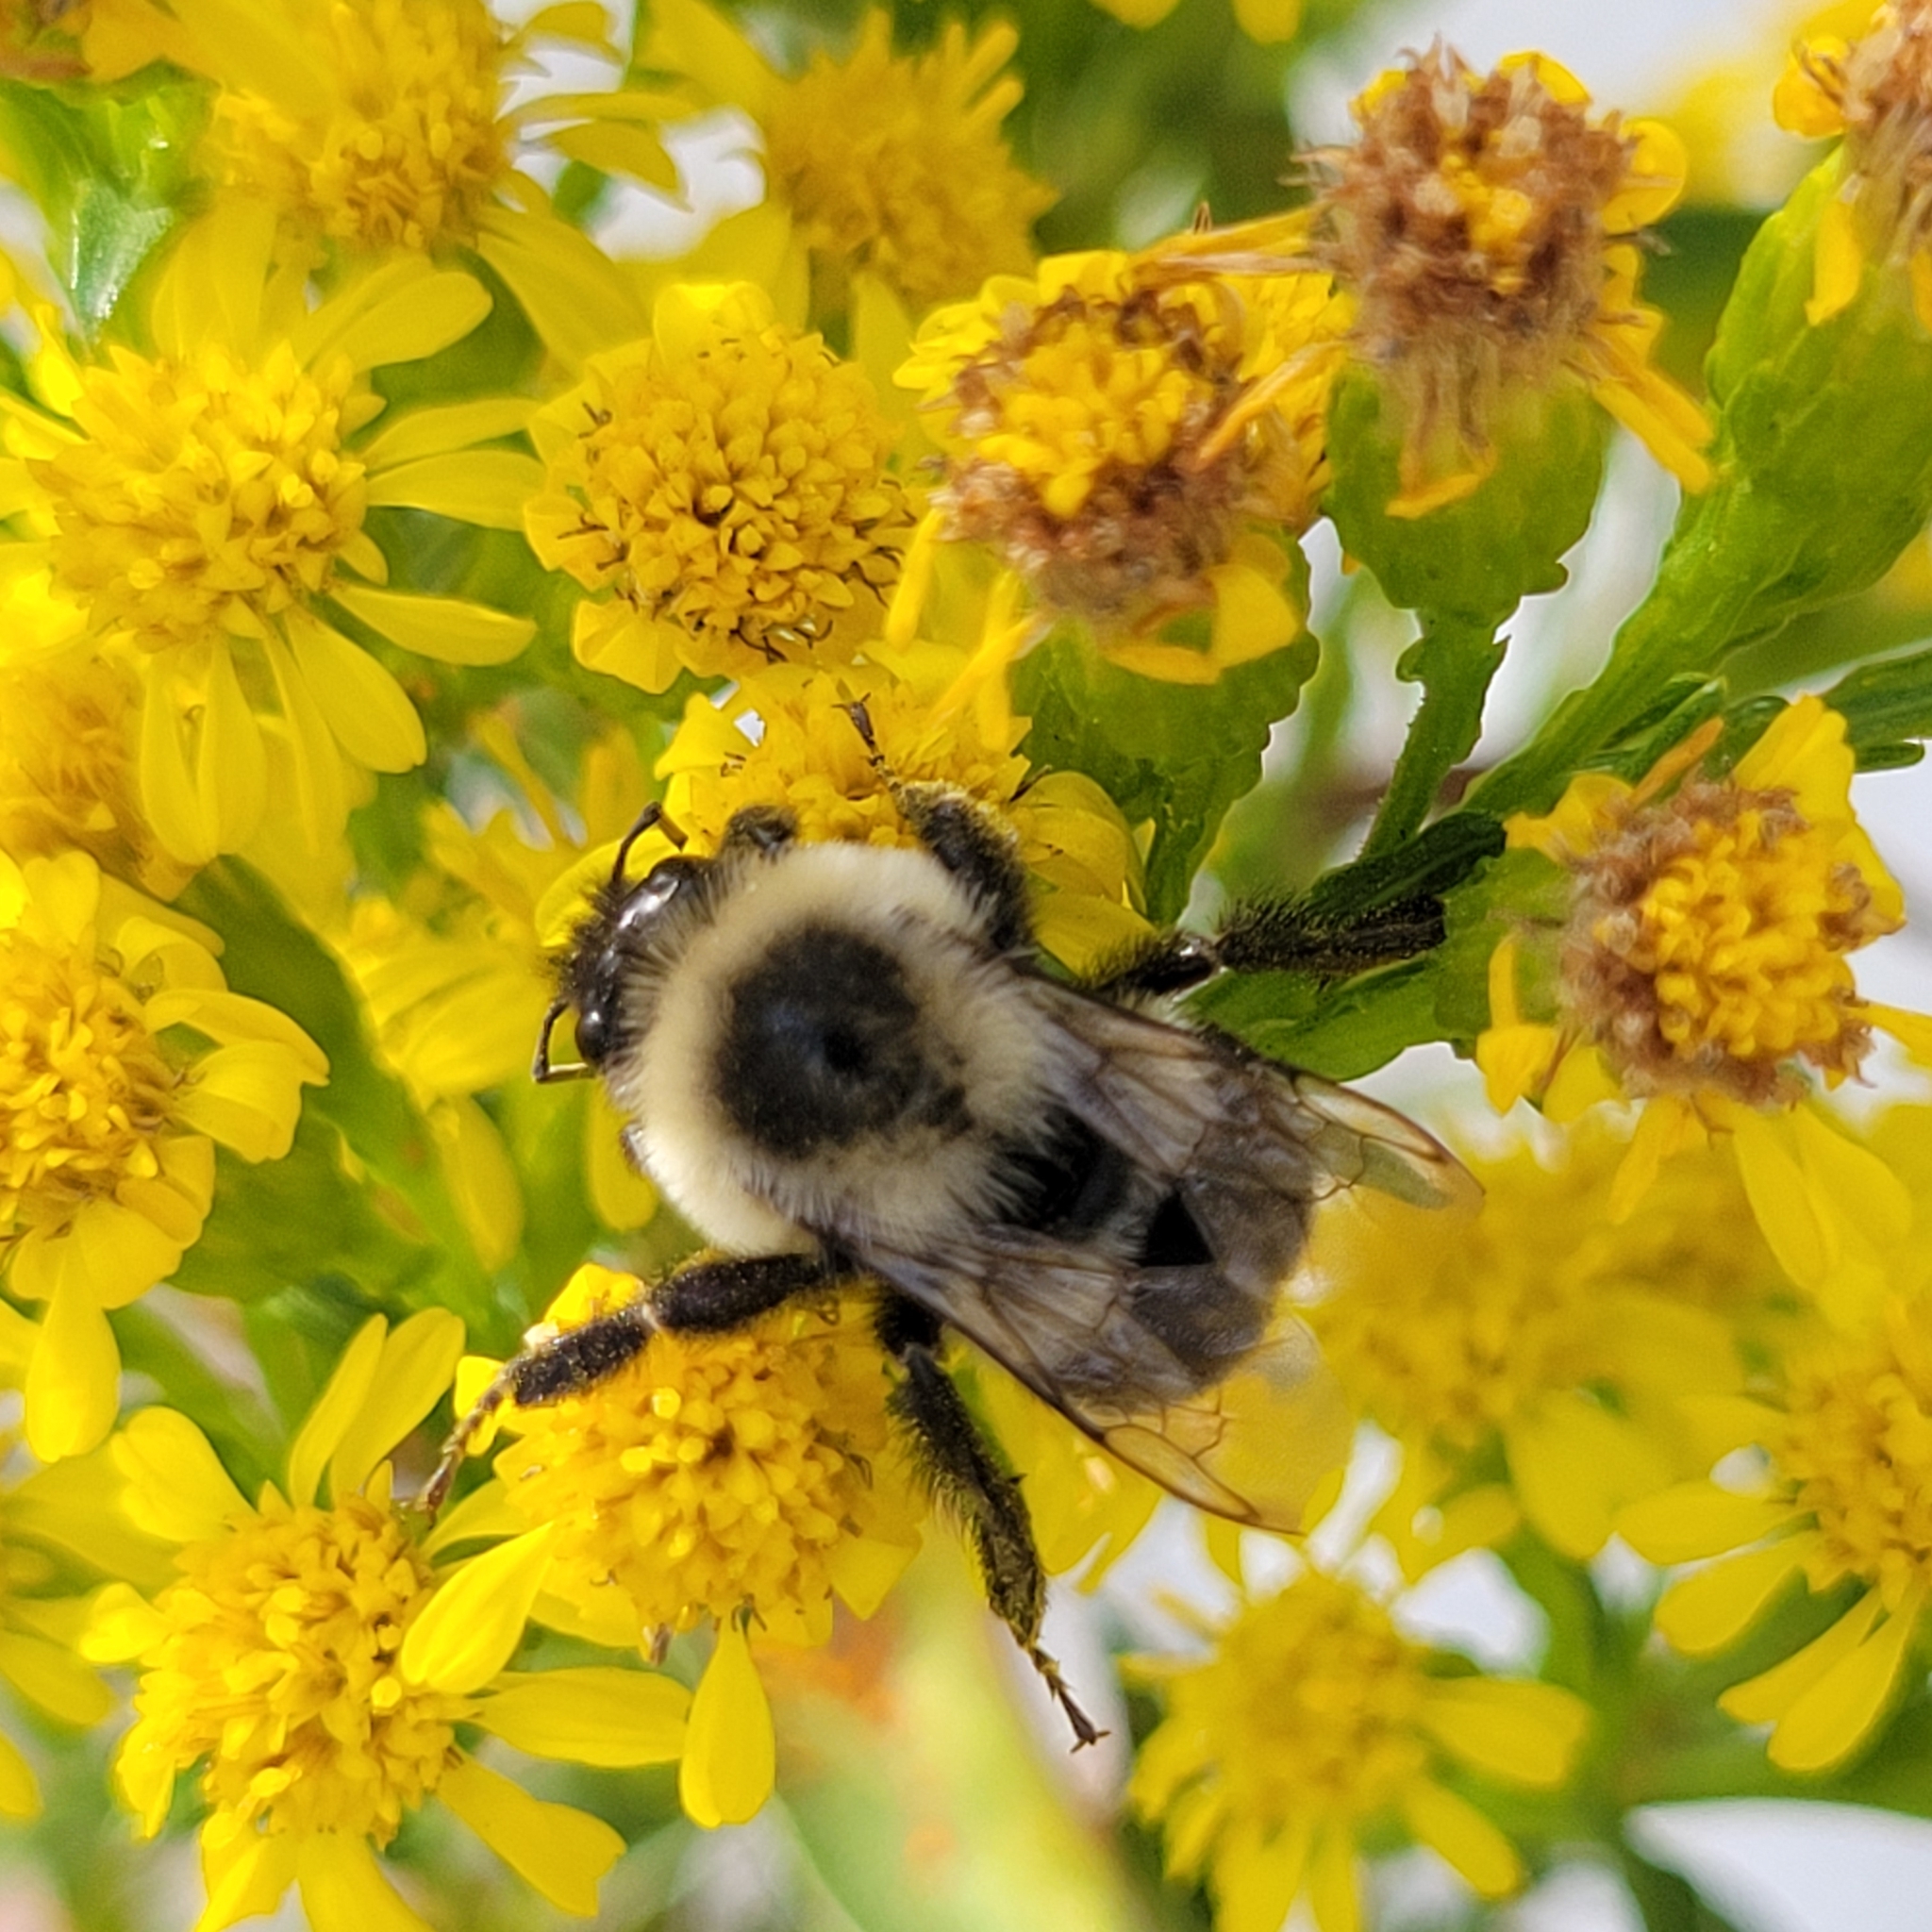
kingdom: Animalia
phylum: Arthropoda
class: Insecta
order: Hymenoptera
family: Apidae
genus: Bombus
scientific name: Bombus impatiens
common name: Common eastern bumble bee
